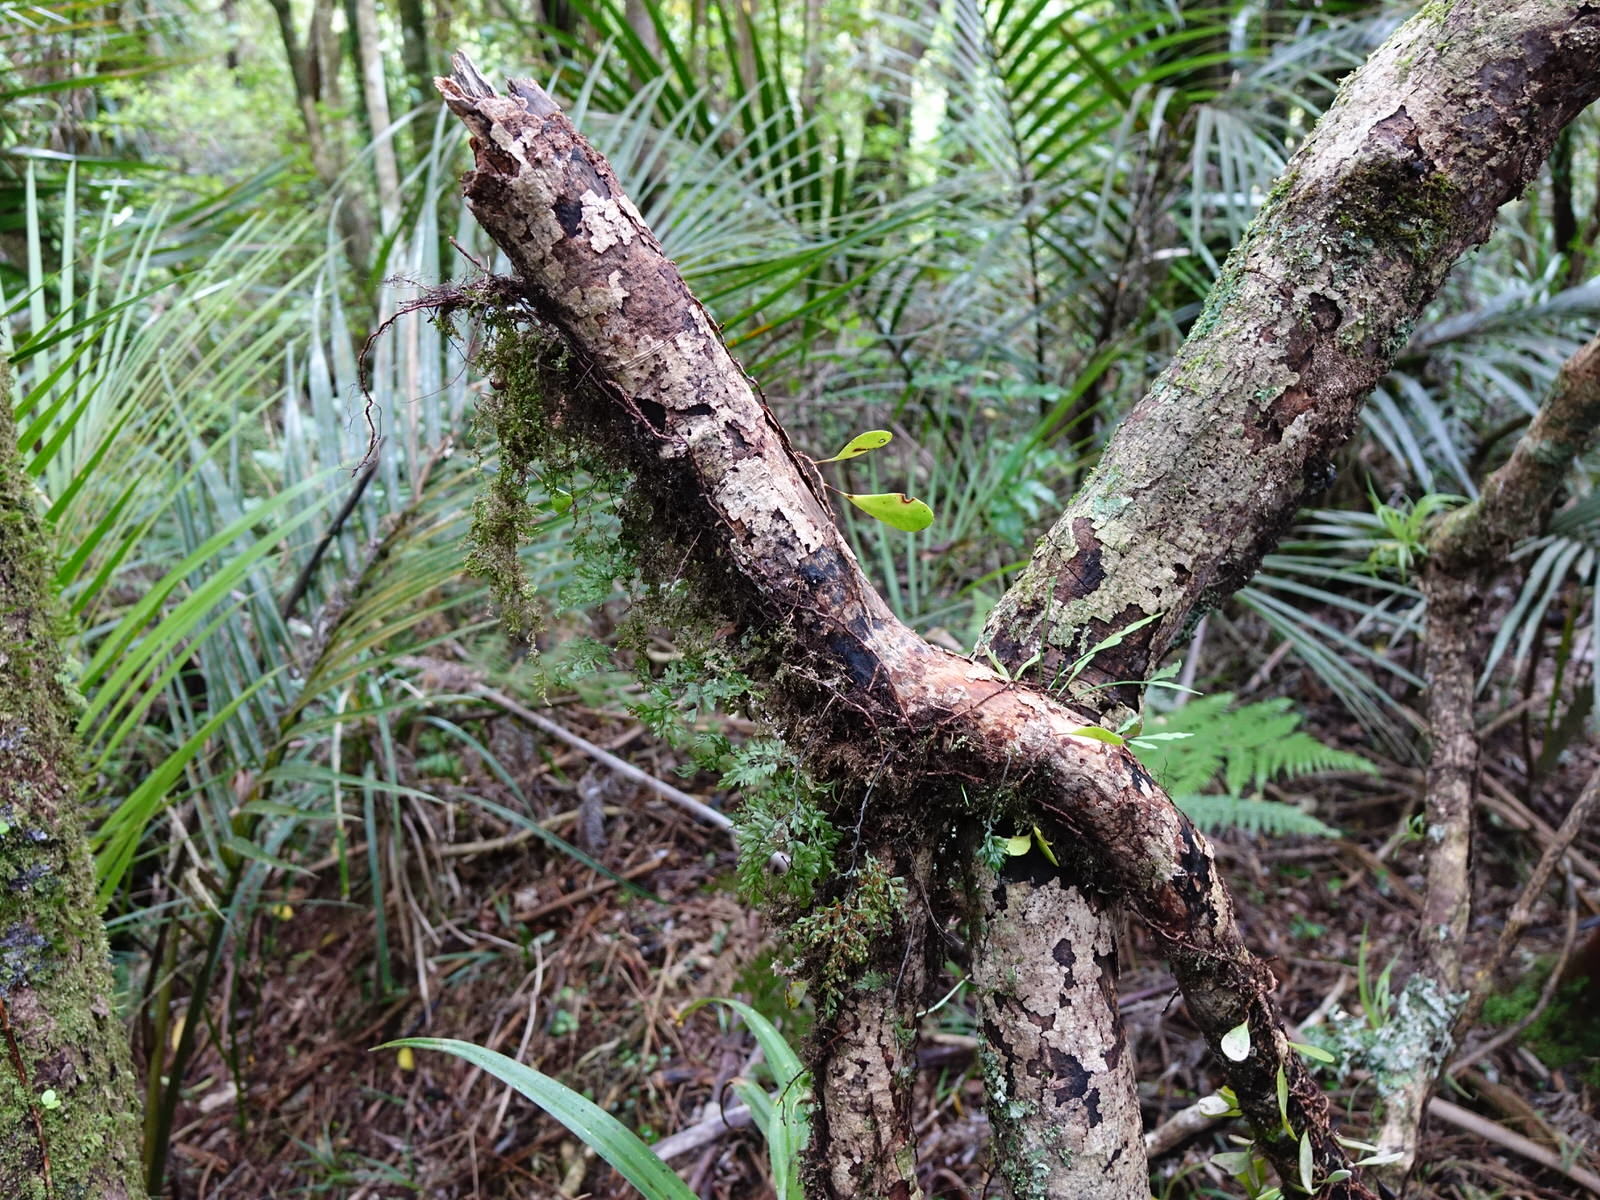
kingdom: Plantae
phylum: Tracheophyta
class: Polypodiopsida
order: Hymenophyllales
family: Hymenophyllaceae
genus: Hymenophyllum
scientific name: Hymenophyllum sanguinolentum
